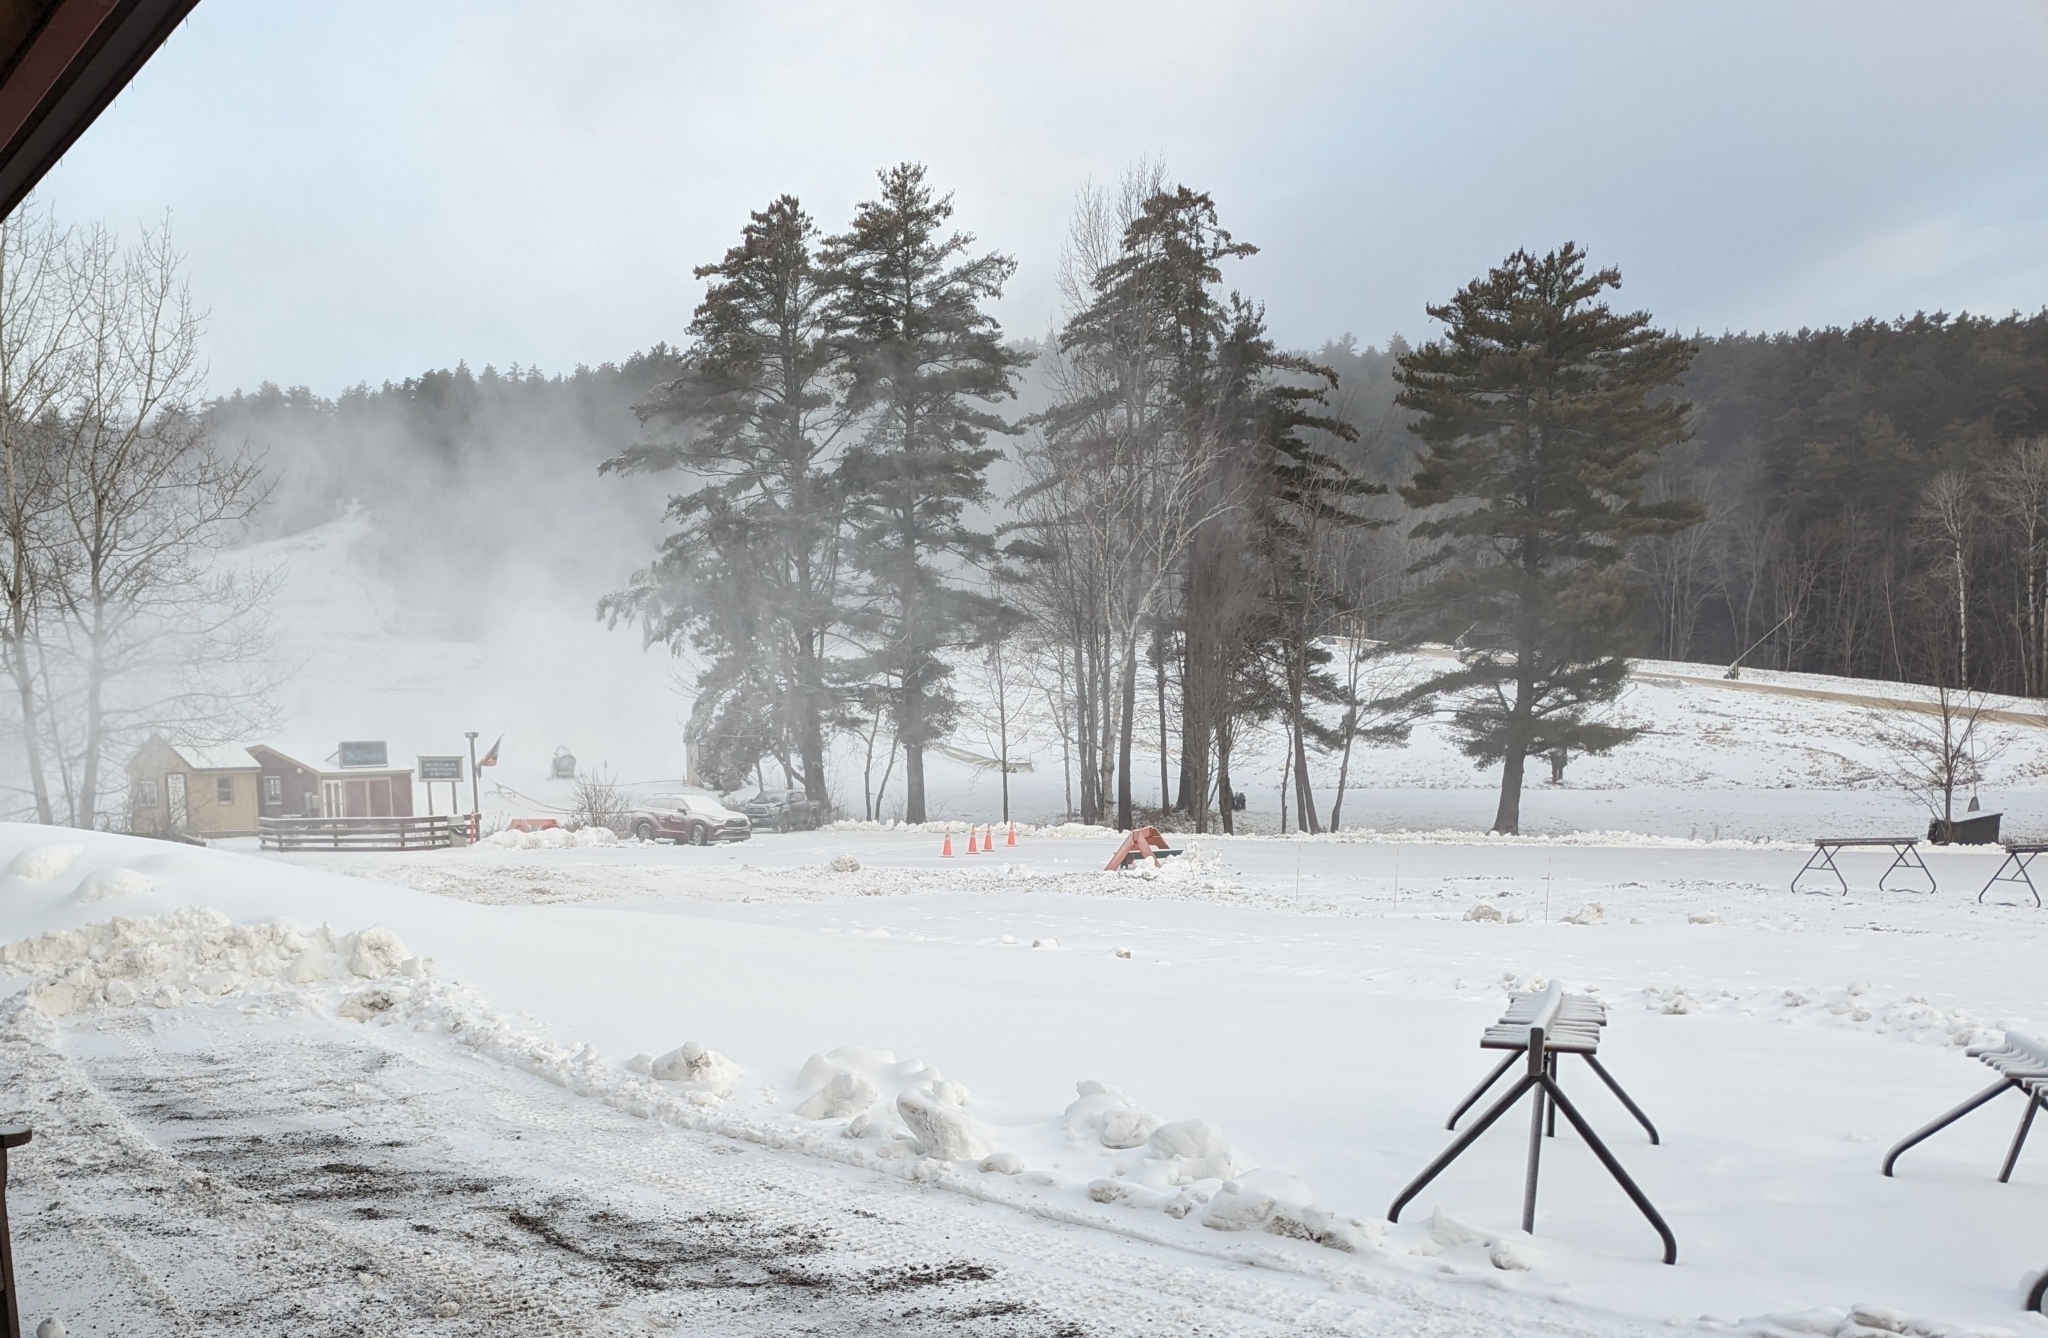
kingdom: Plantae
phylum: Tracheophyta
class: Pinopsida
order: Pinales
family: Pinaceae
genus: Pinus
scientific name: Pinus strobus
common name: Weymouth pine
